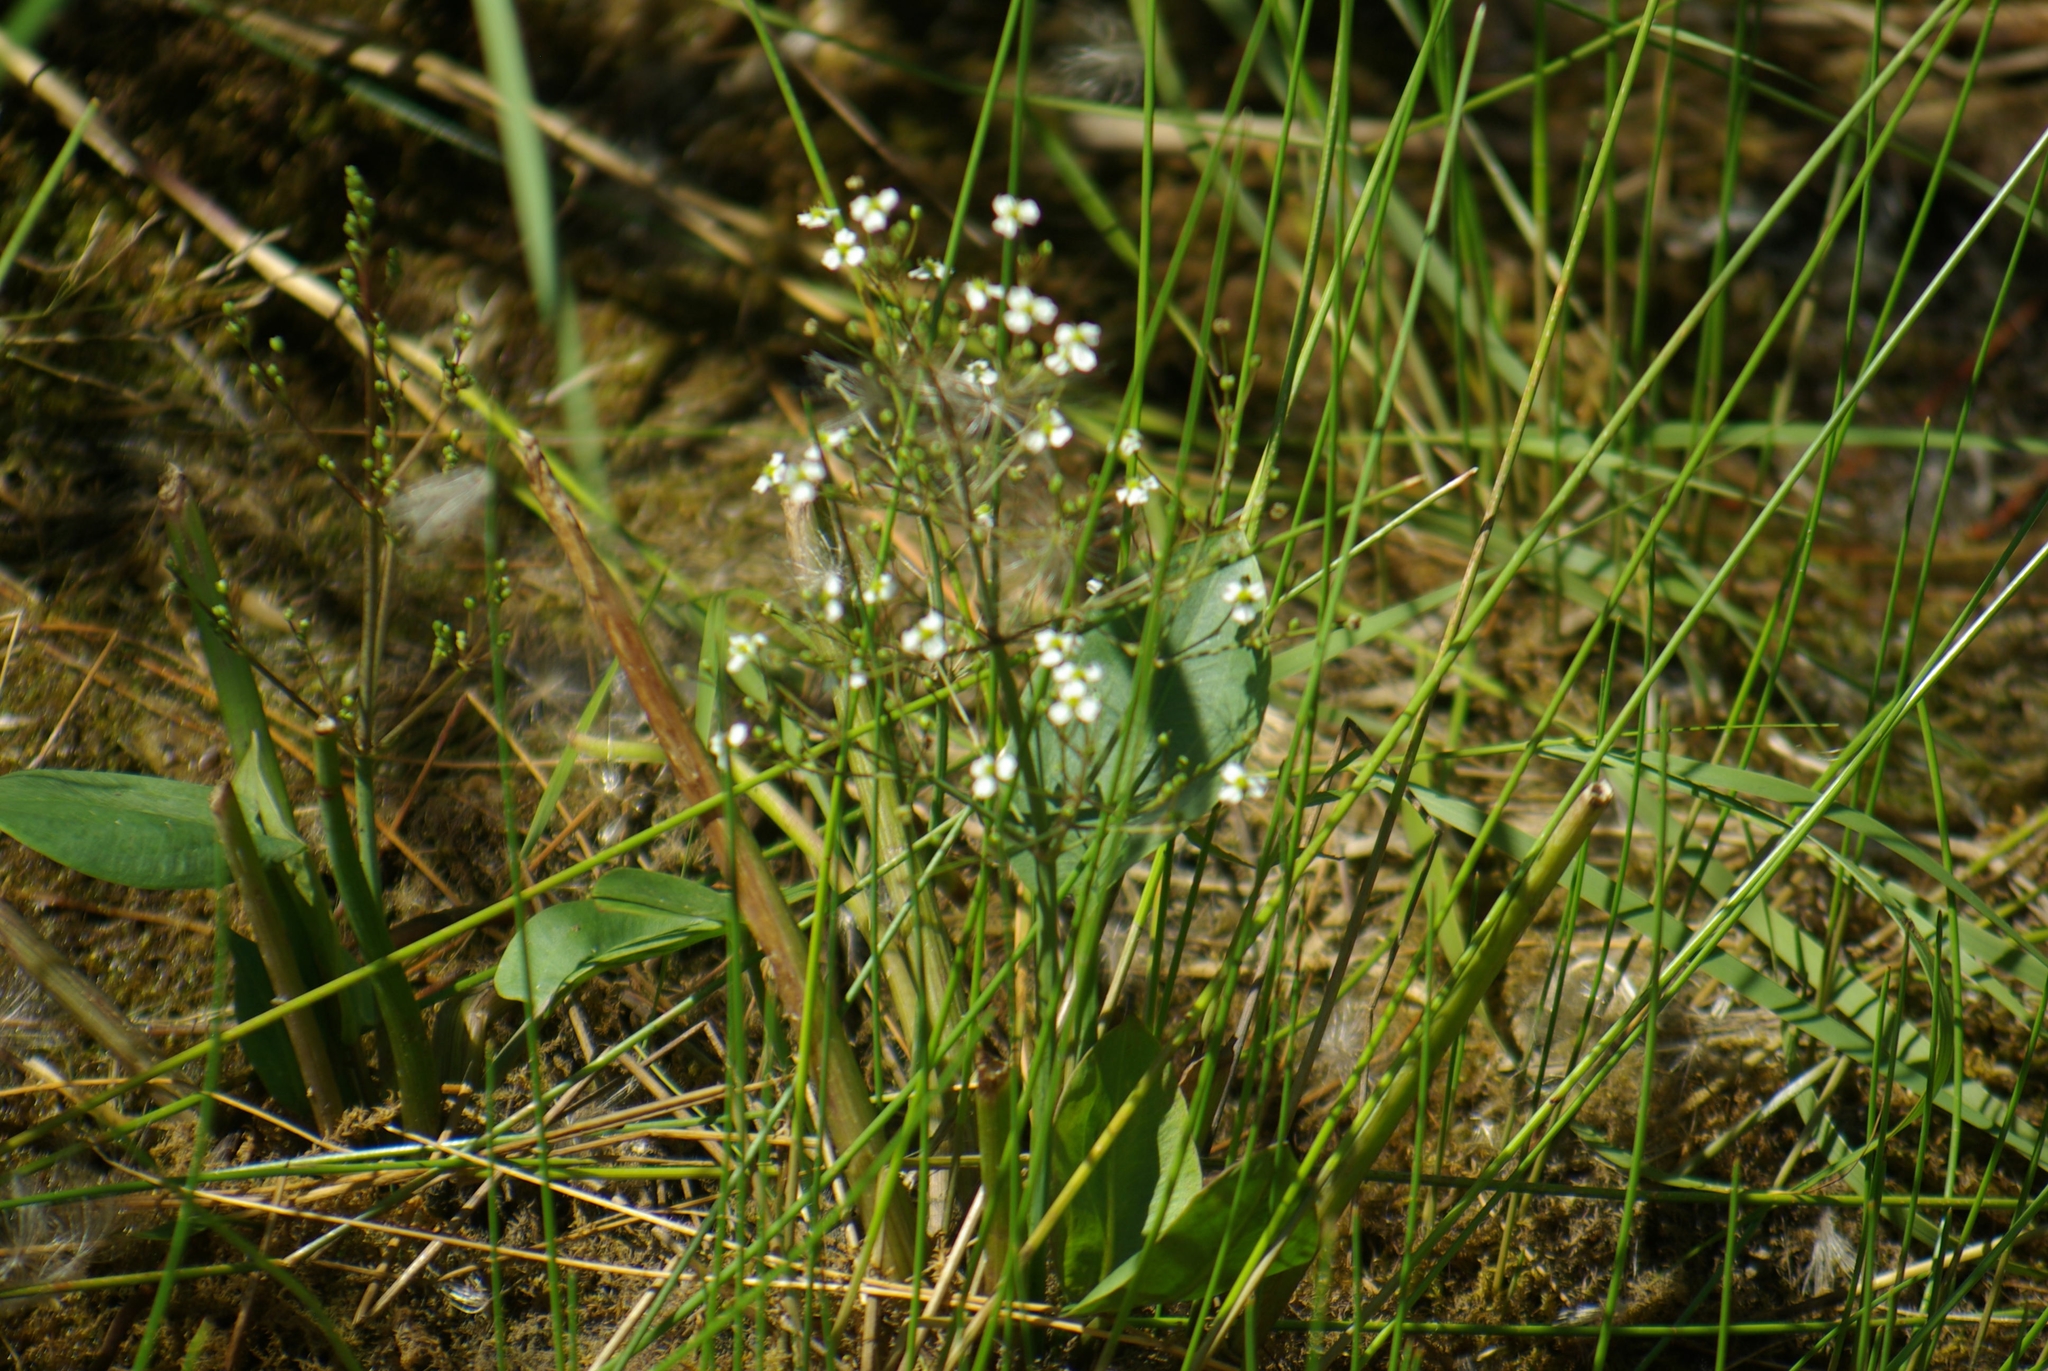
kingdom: Plantae
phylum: Tracheophyta
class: Liliopsida
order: Alismatales
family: Alismataceae
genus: Alisma
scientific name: Alisma triviale
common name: Northern water-plantain
